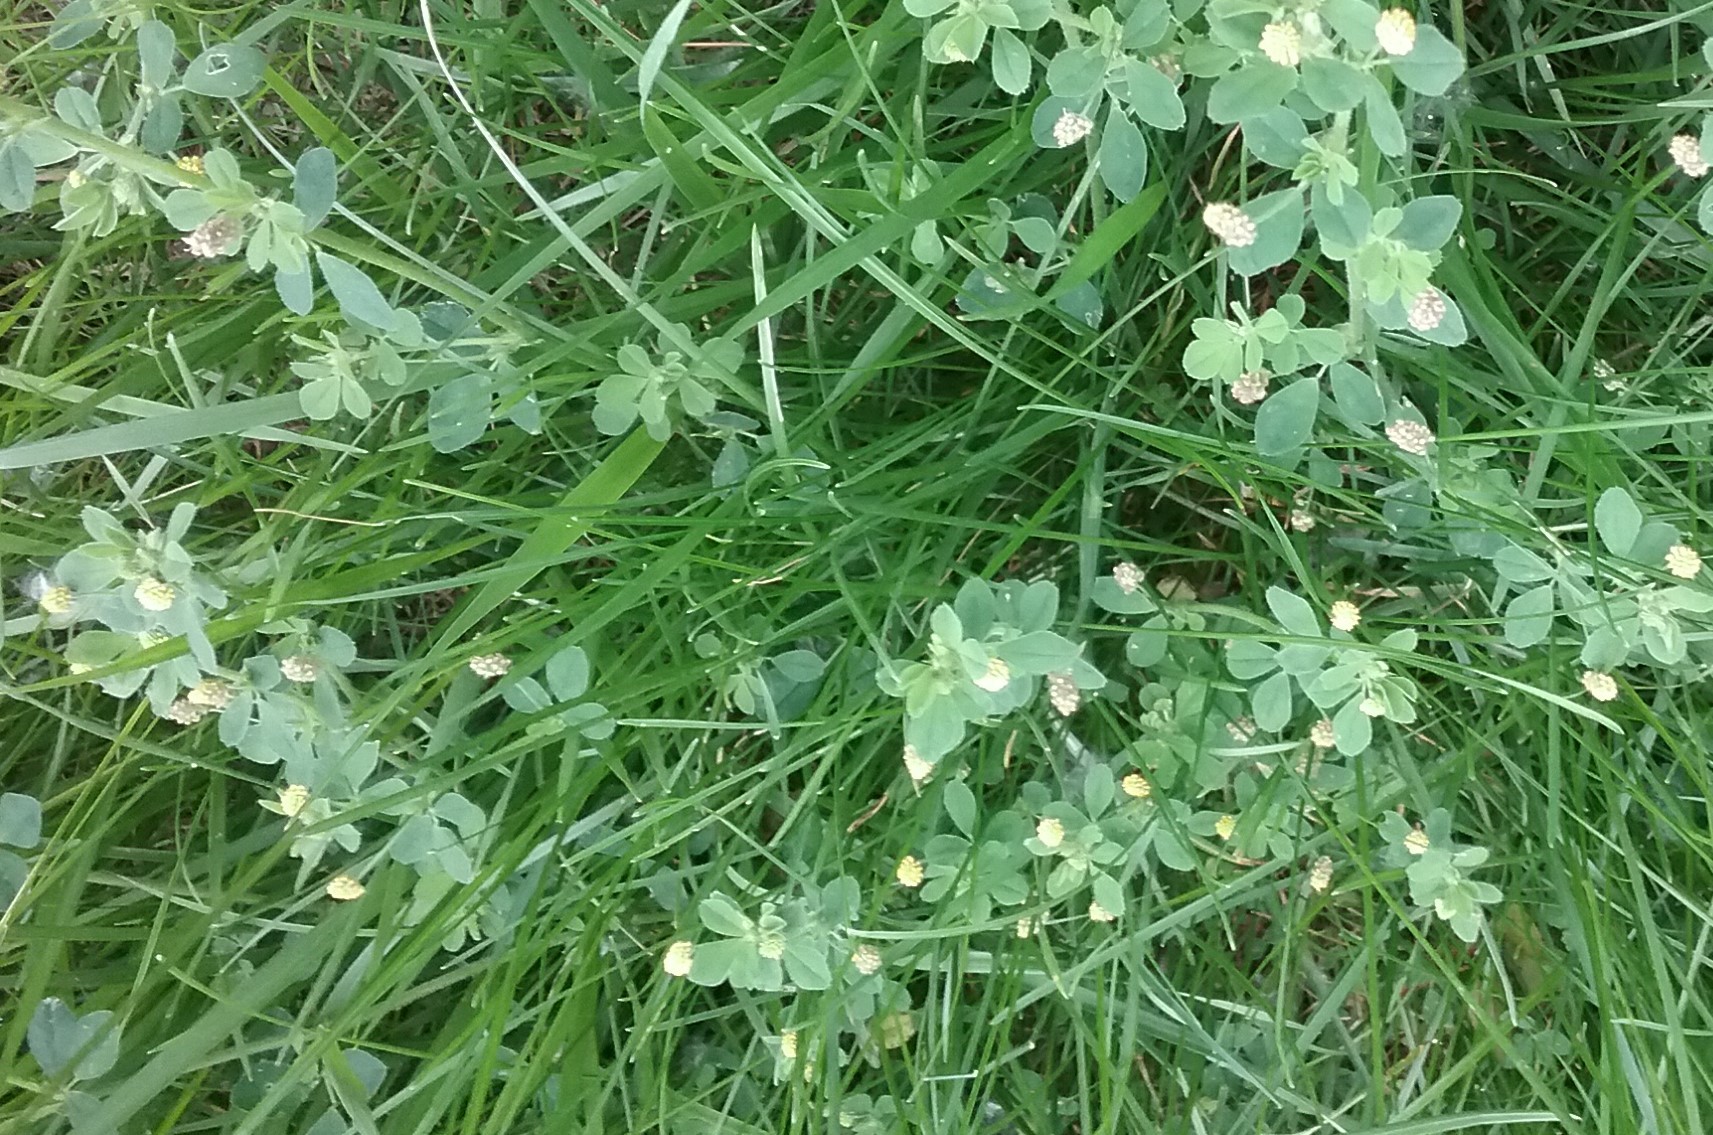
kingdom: Plantae
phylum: Tracheophyta
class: Magnoliopsida
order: Fabales
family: Fabaceae
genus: Medicago
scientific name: Medicago lupulina
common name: Black medick
